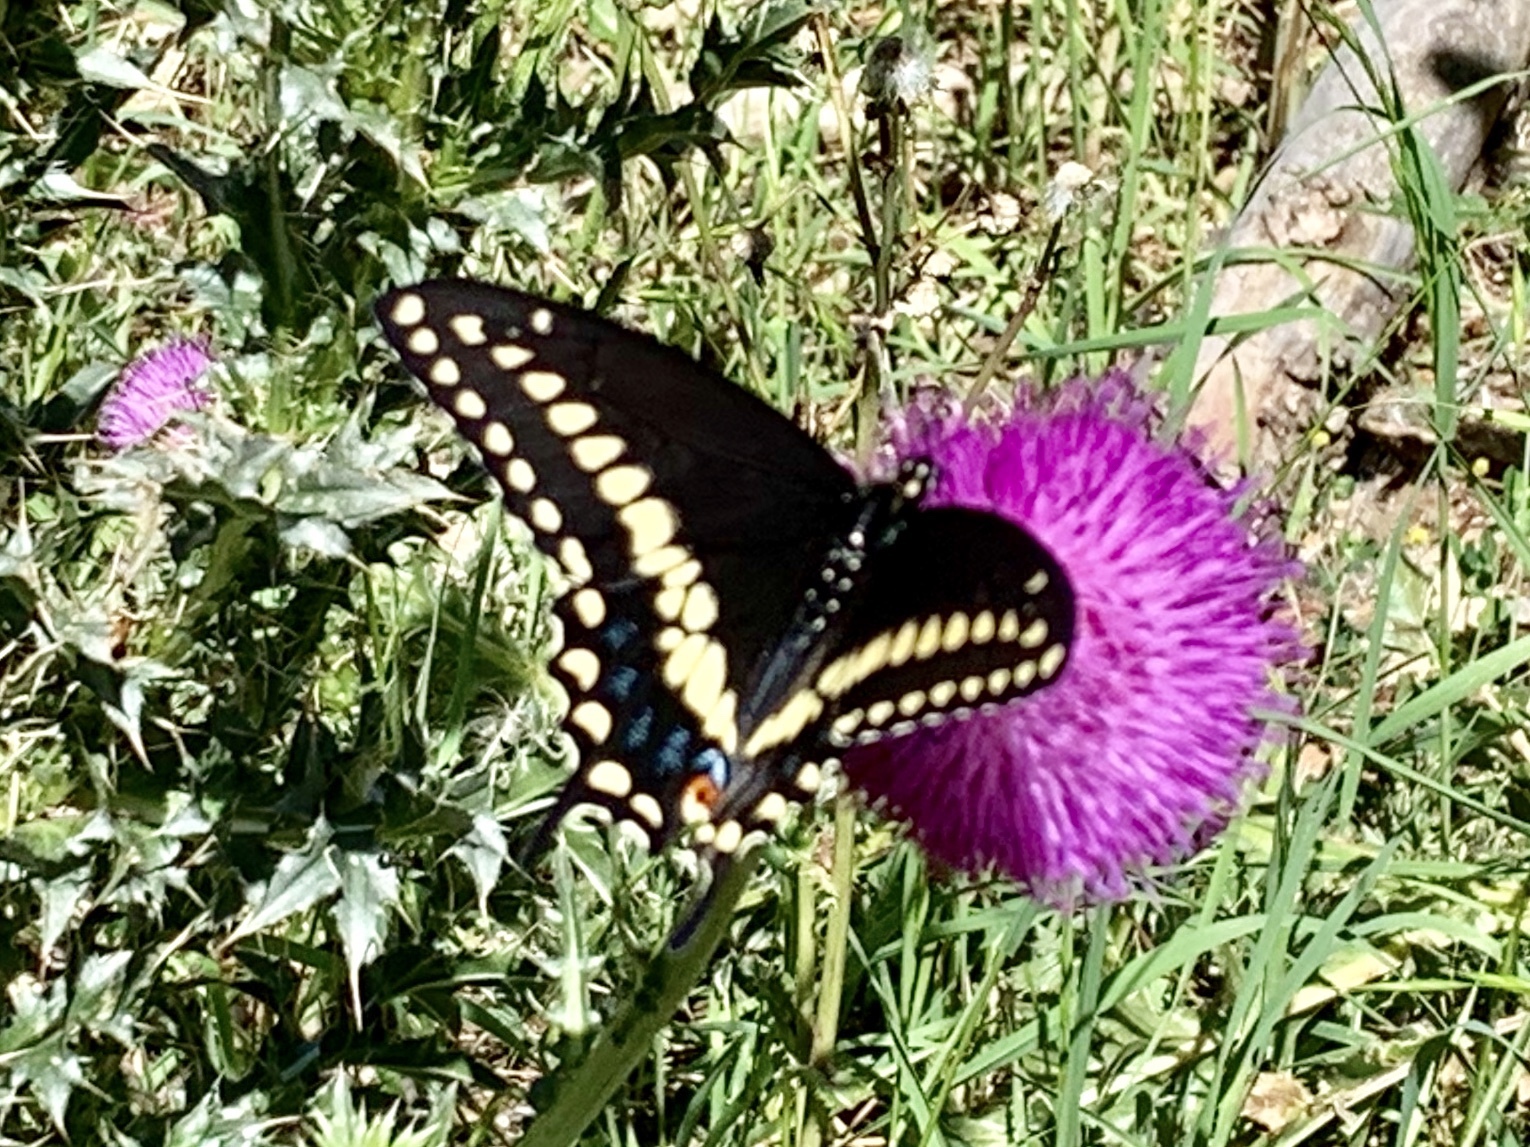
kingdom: Animalia
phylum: Arthropoda
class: Insecta
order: Lepidoptera
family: Papilionidae
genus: Papilio
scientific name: Papilio polyxenes
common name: Black swallowtail
